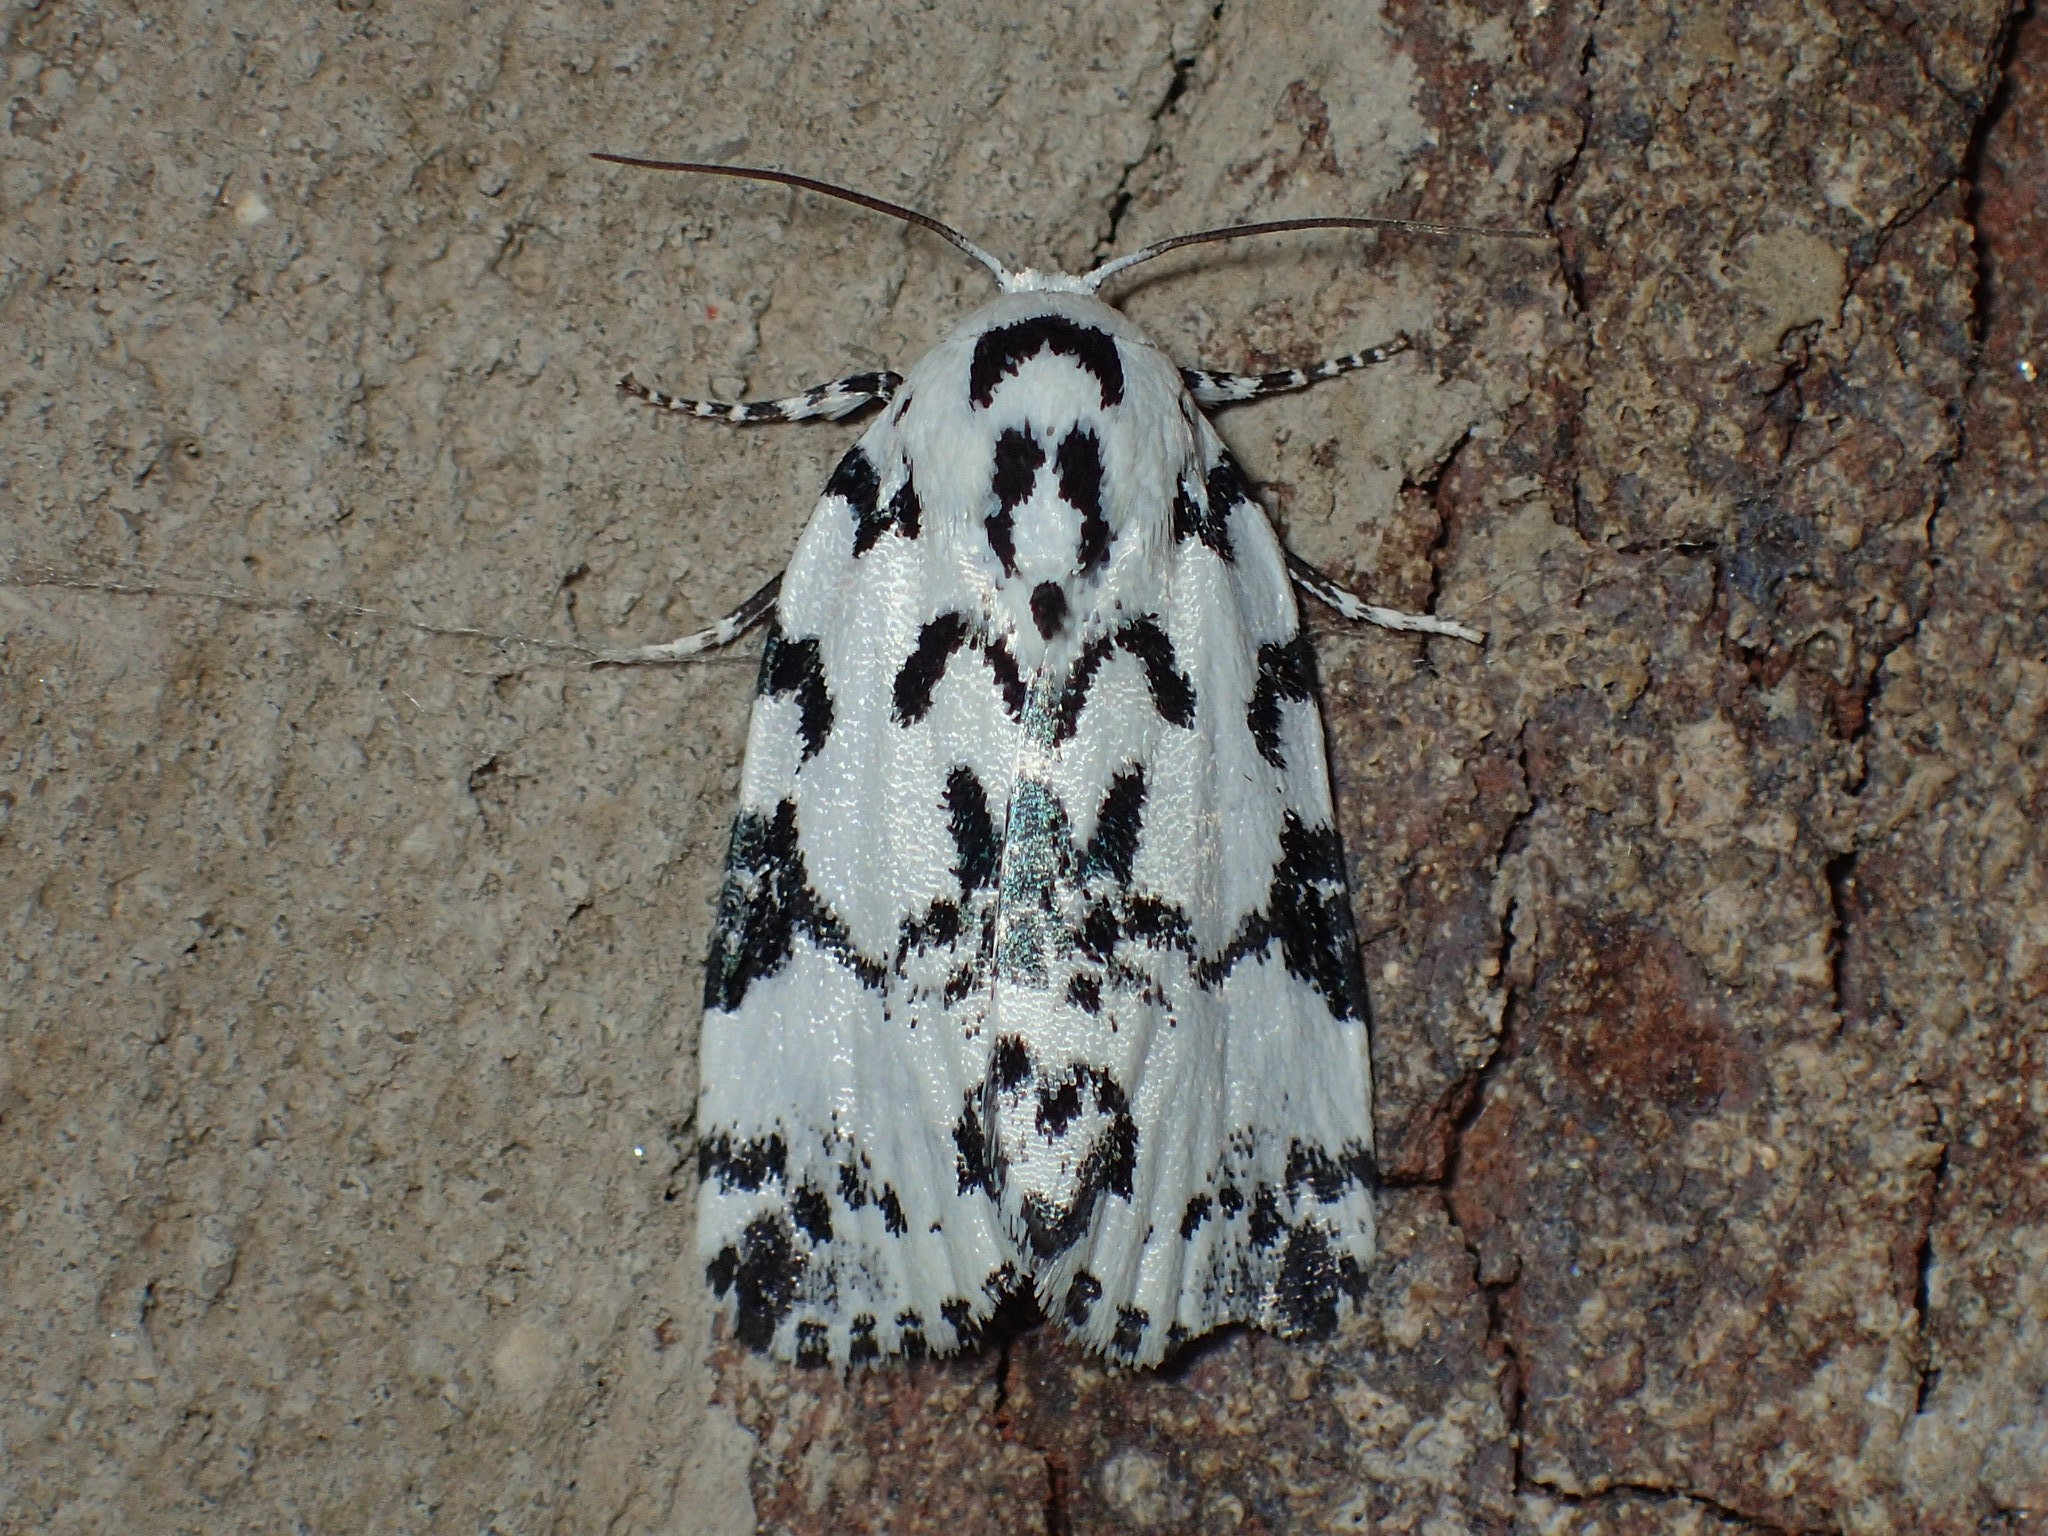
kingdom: Animalia
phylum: Arthropoda
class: Insecta
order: Lepidoptera
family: Noctuidae
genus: Polygrammate
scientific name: Polygrammate hebraeicum
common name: Hebrew moth
